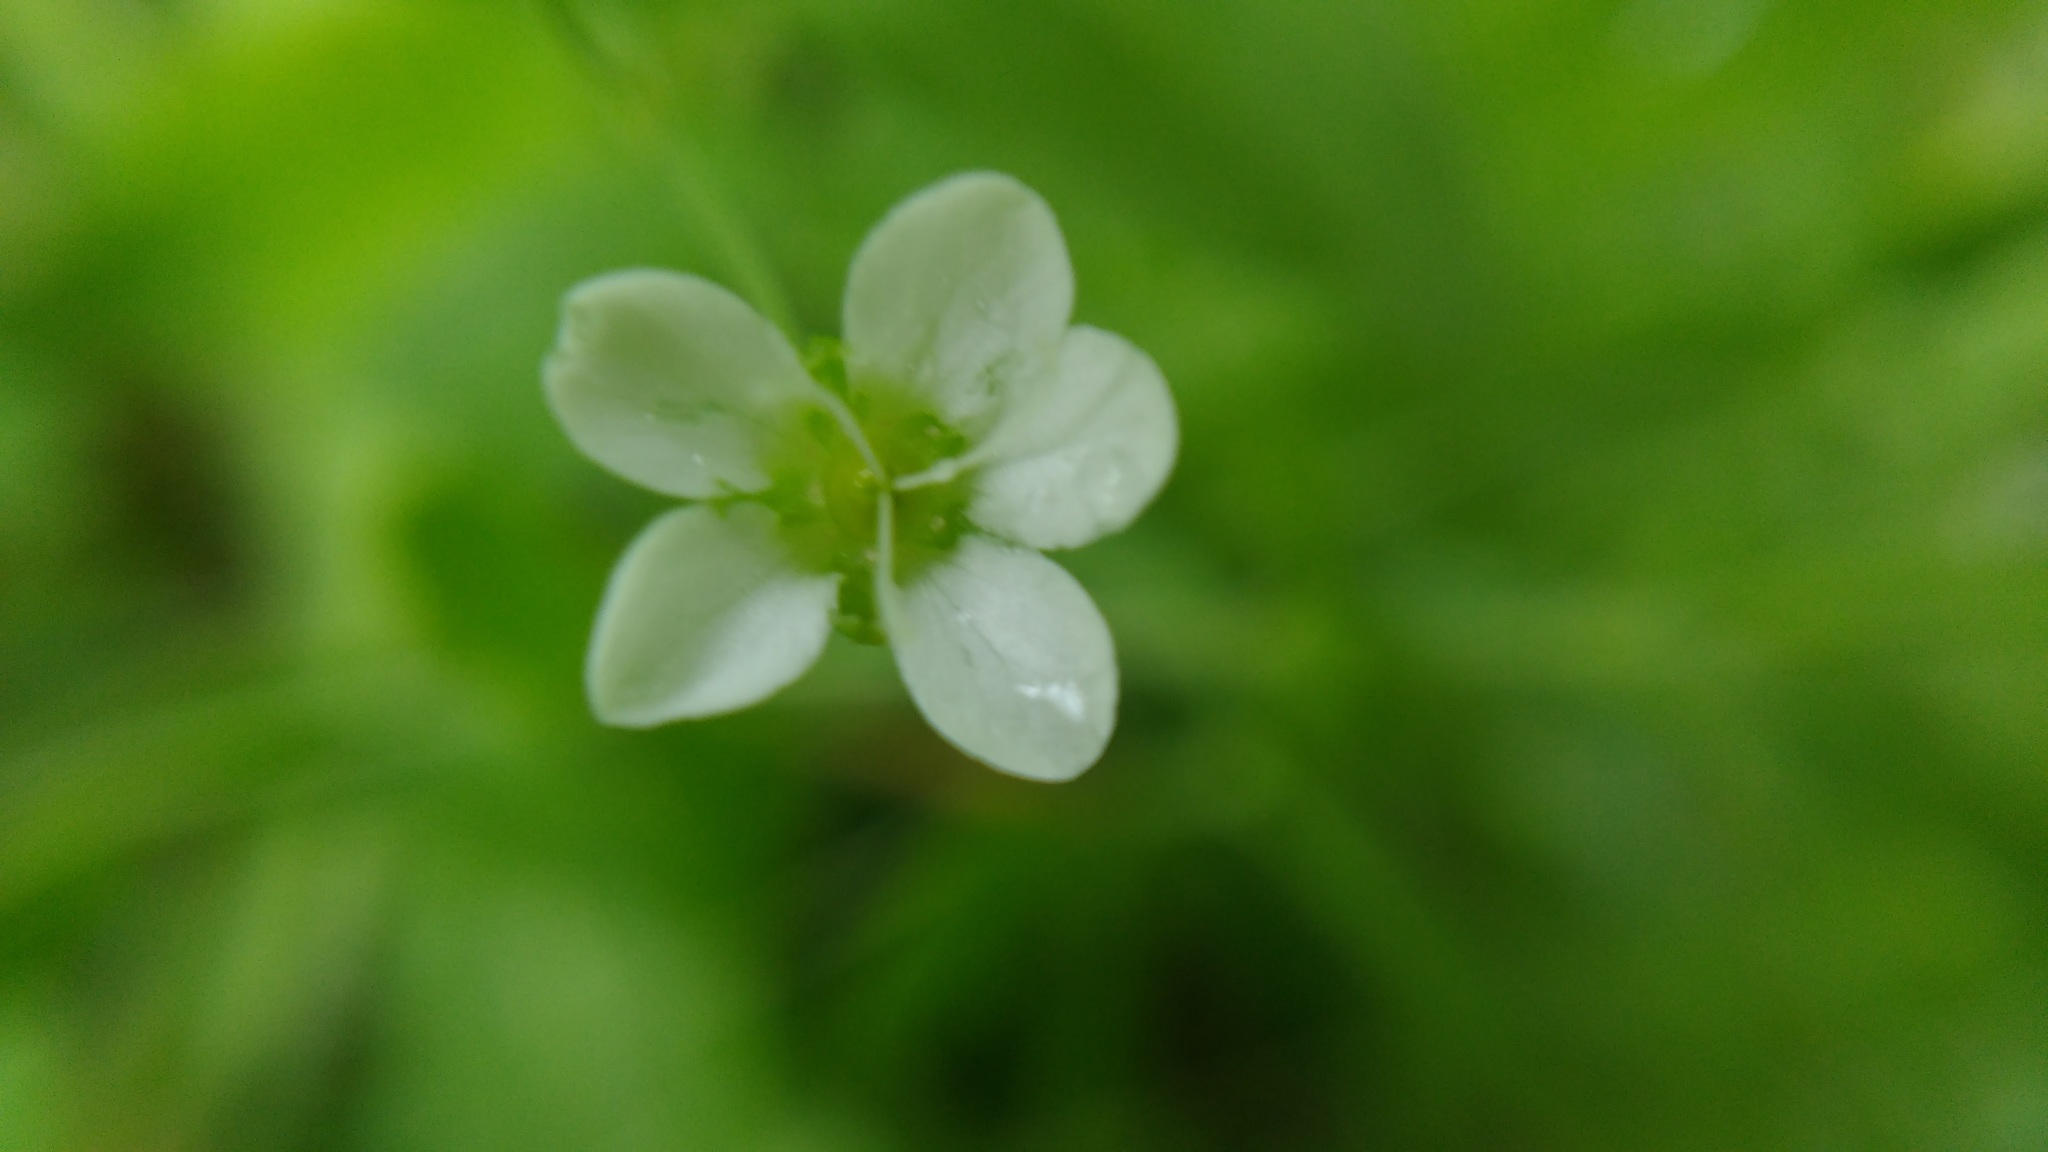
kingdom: Plantae
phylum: Tracheophyta
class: Magnoliopsida
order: Caryophyllales
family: Caryophyllaceae
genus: Moehringia
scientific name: Moehringia lateriflora
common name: Blunt-leaved sandwort
